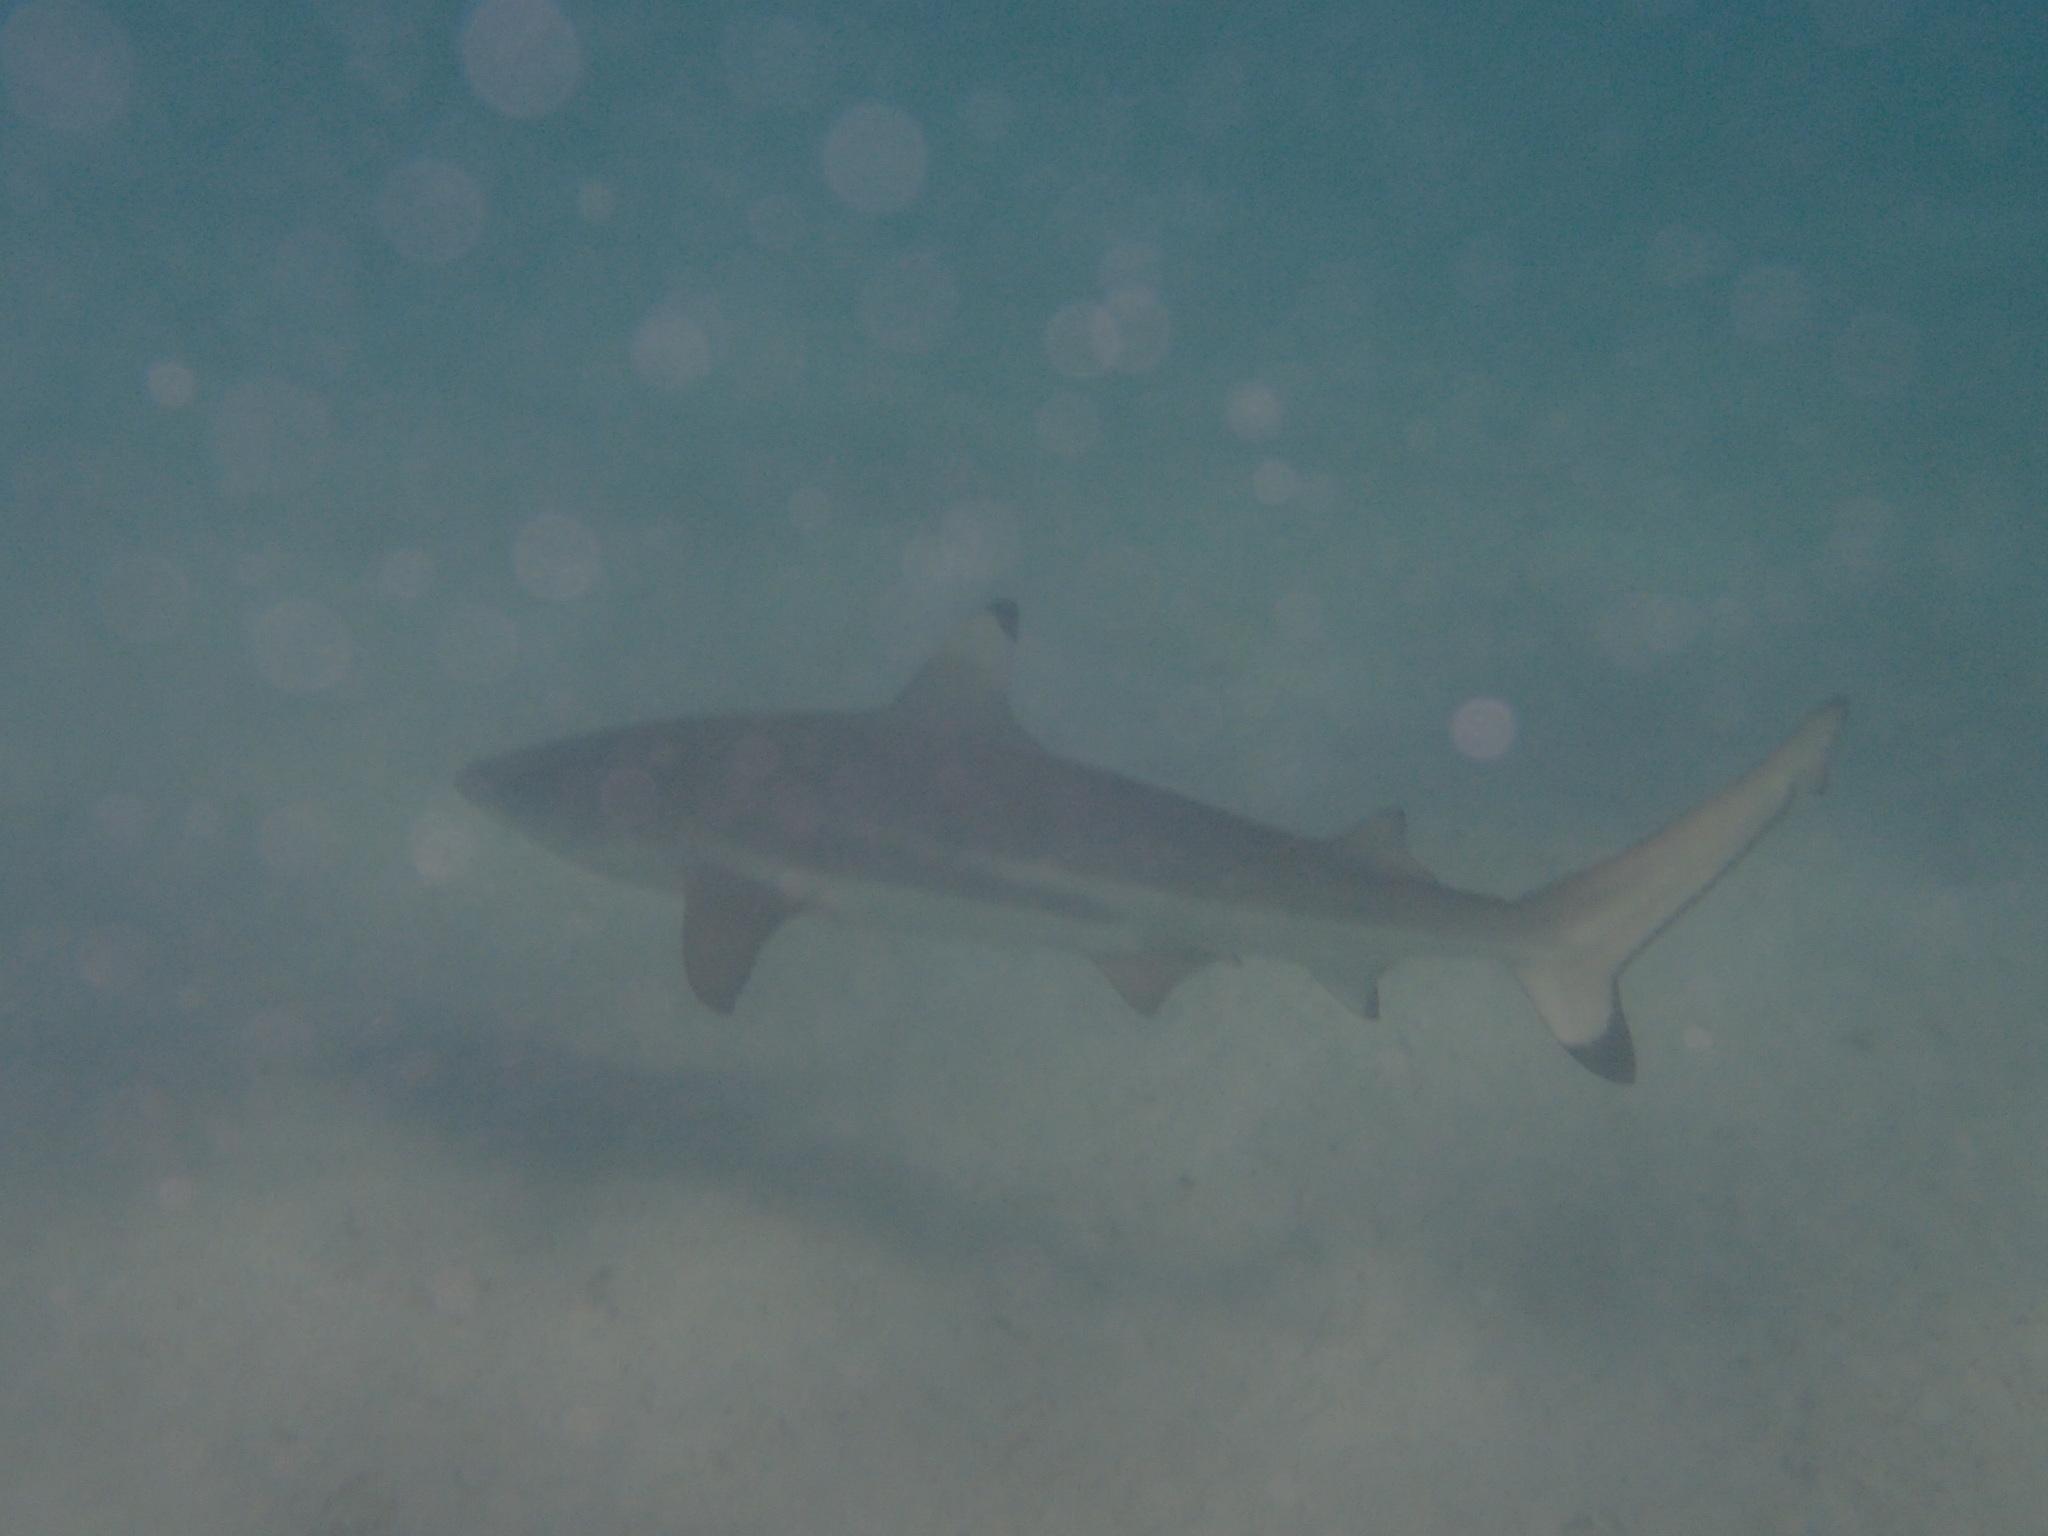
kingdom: Animalia
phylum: Chordata
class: Elasmobranchii
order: Carcharhiniformes
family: Carcharhinidae
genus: Carcharhinus
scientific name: Carcharhinus melanopterus
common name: Blacktip reef shark
